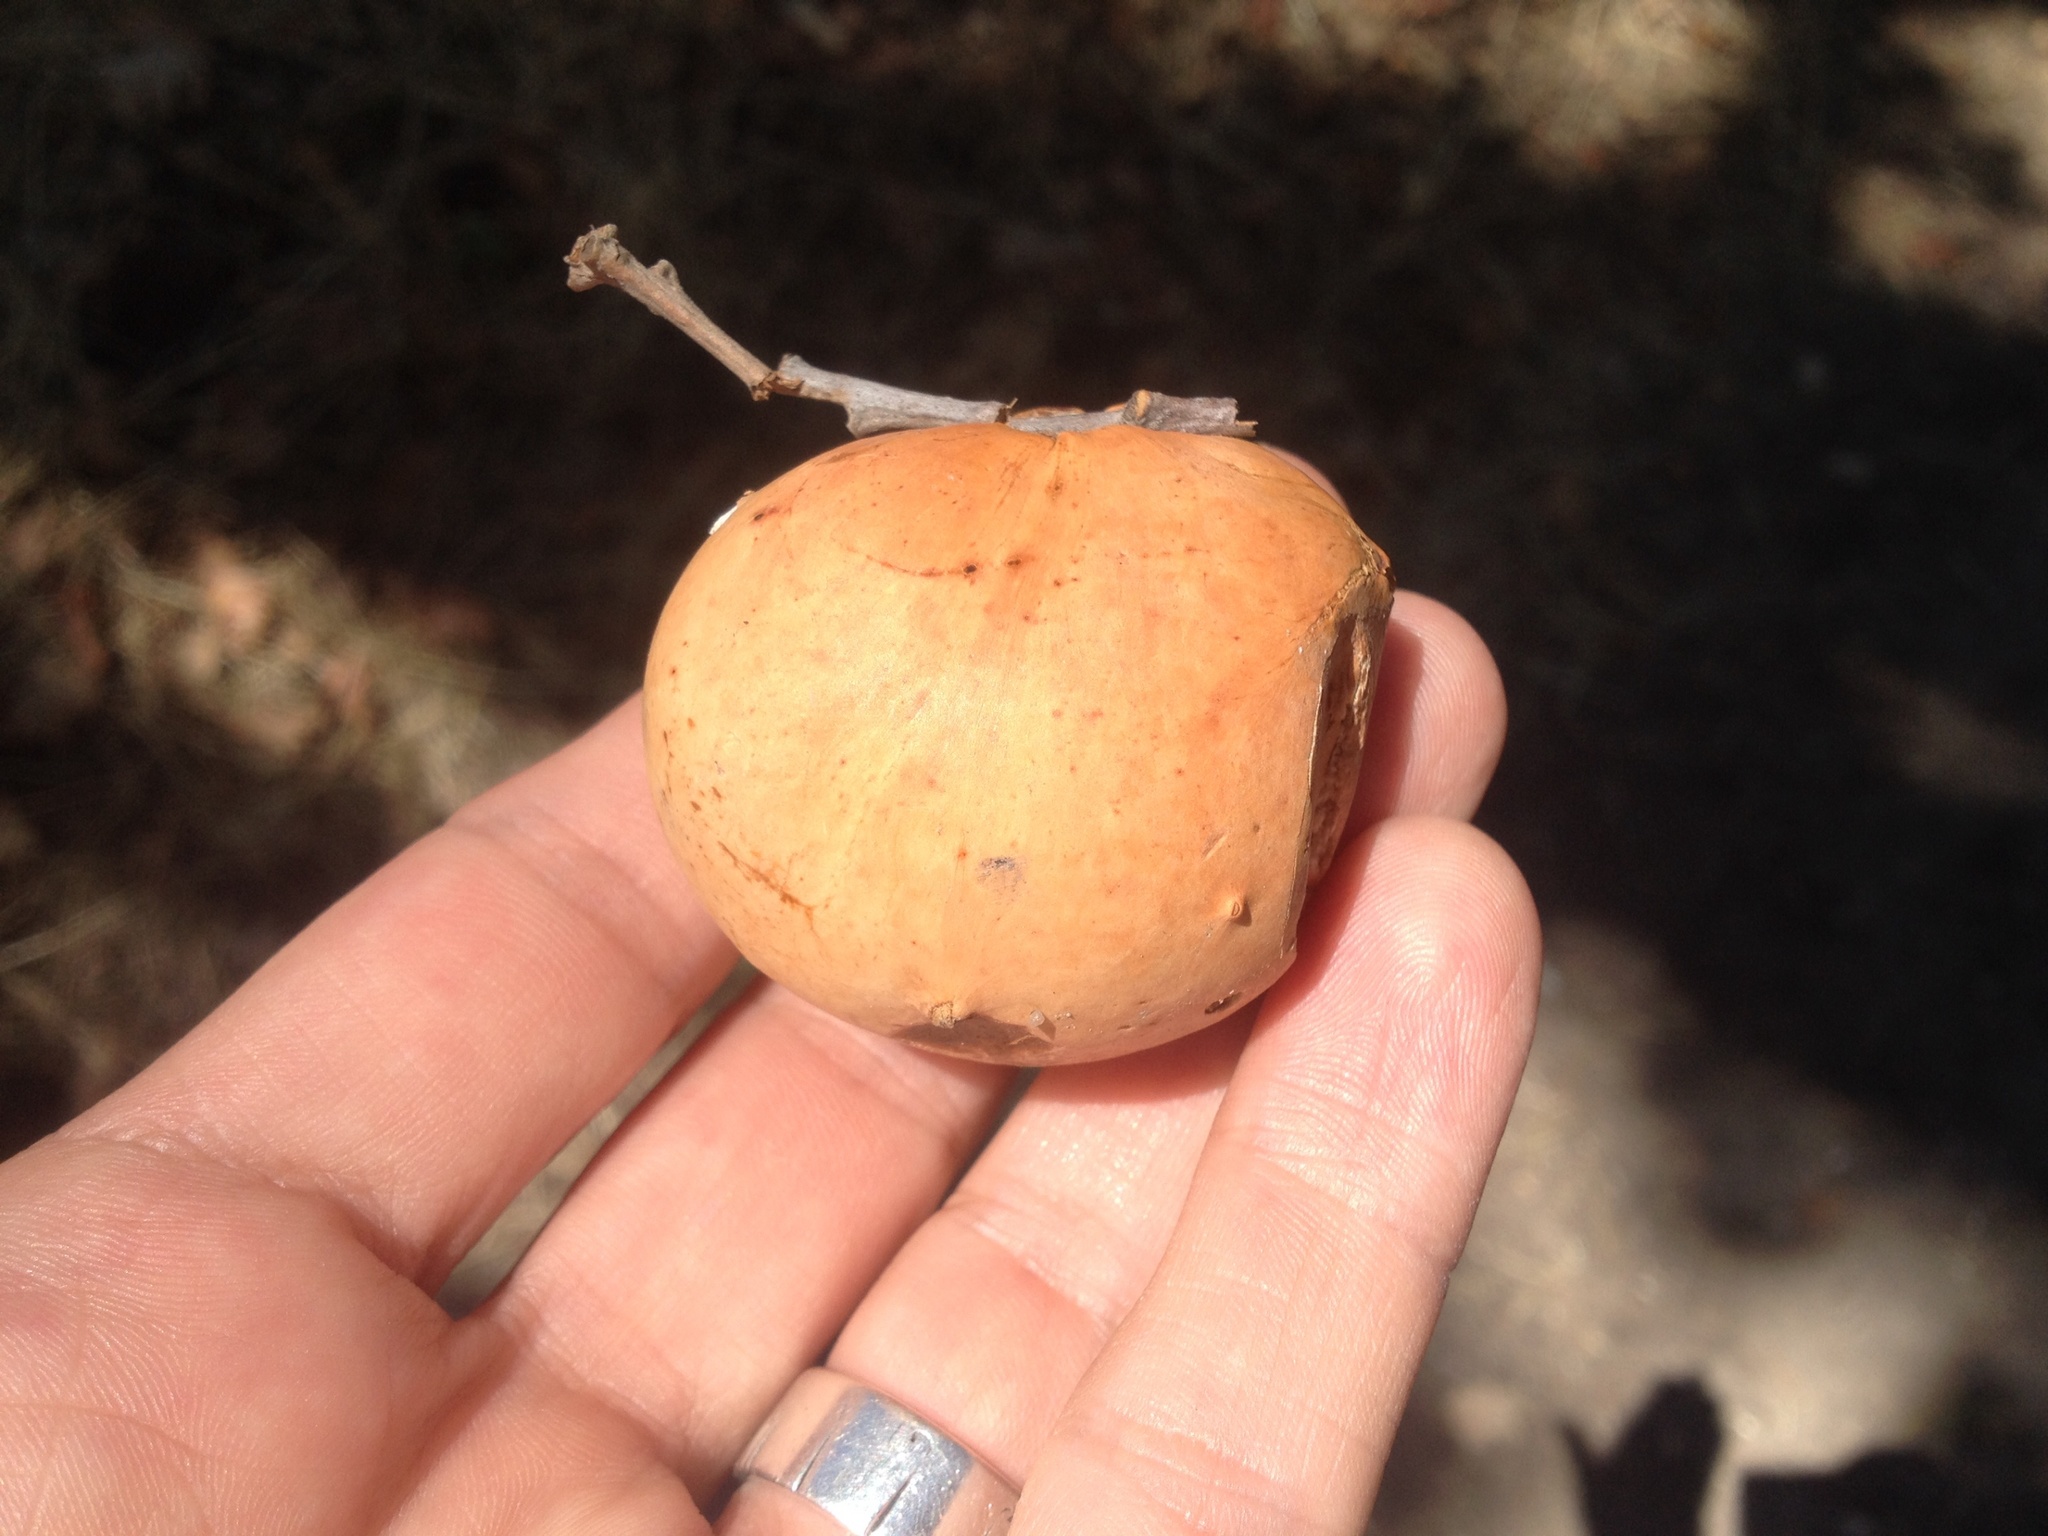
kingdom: Animalia
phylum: Arthropoda
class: Insecta
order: Hymenoptera
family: Cynipidae
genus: Andricus
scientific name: Andricus quercuscalifornicus
